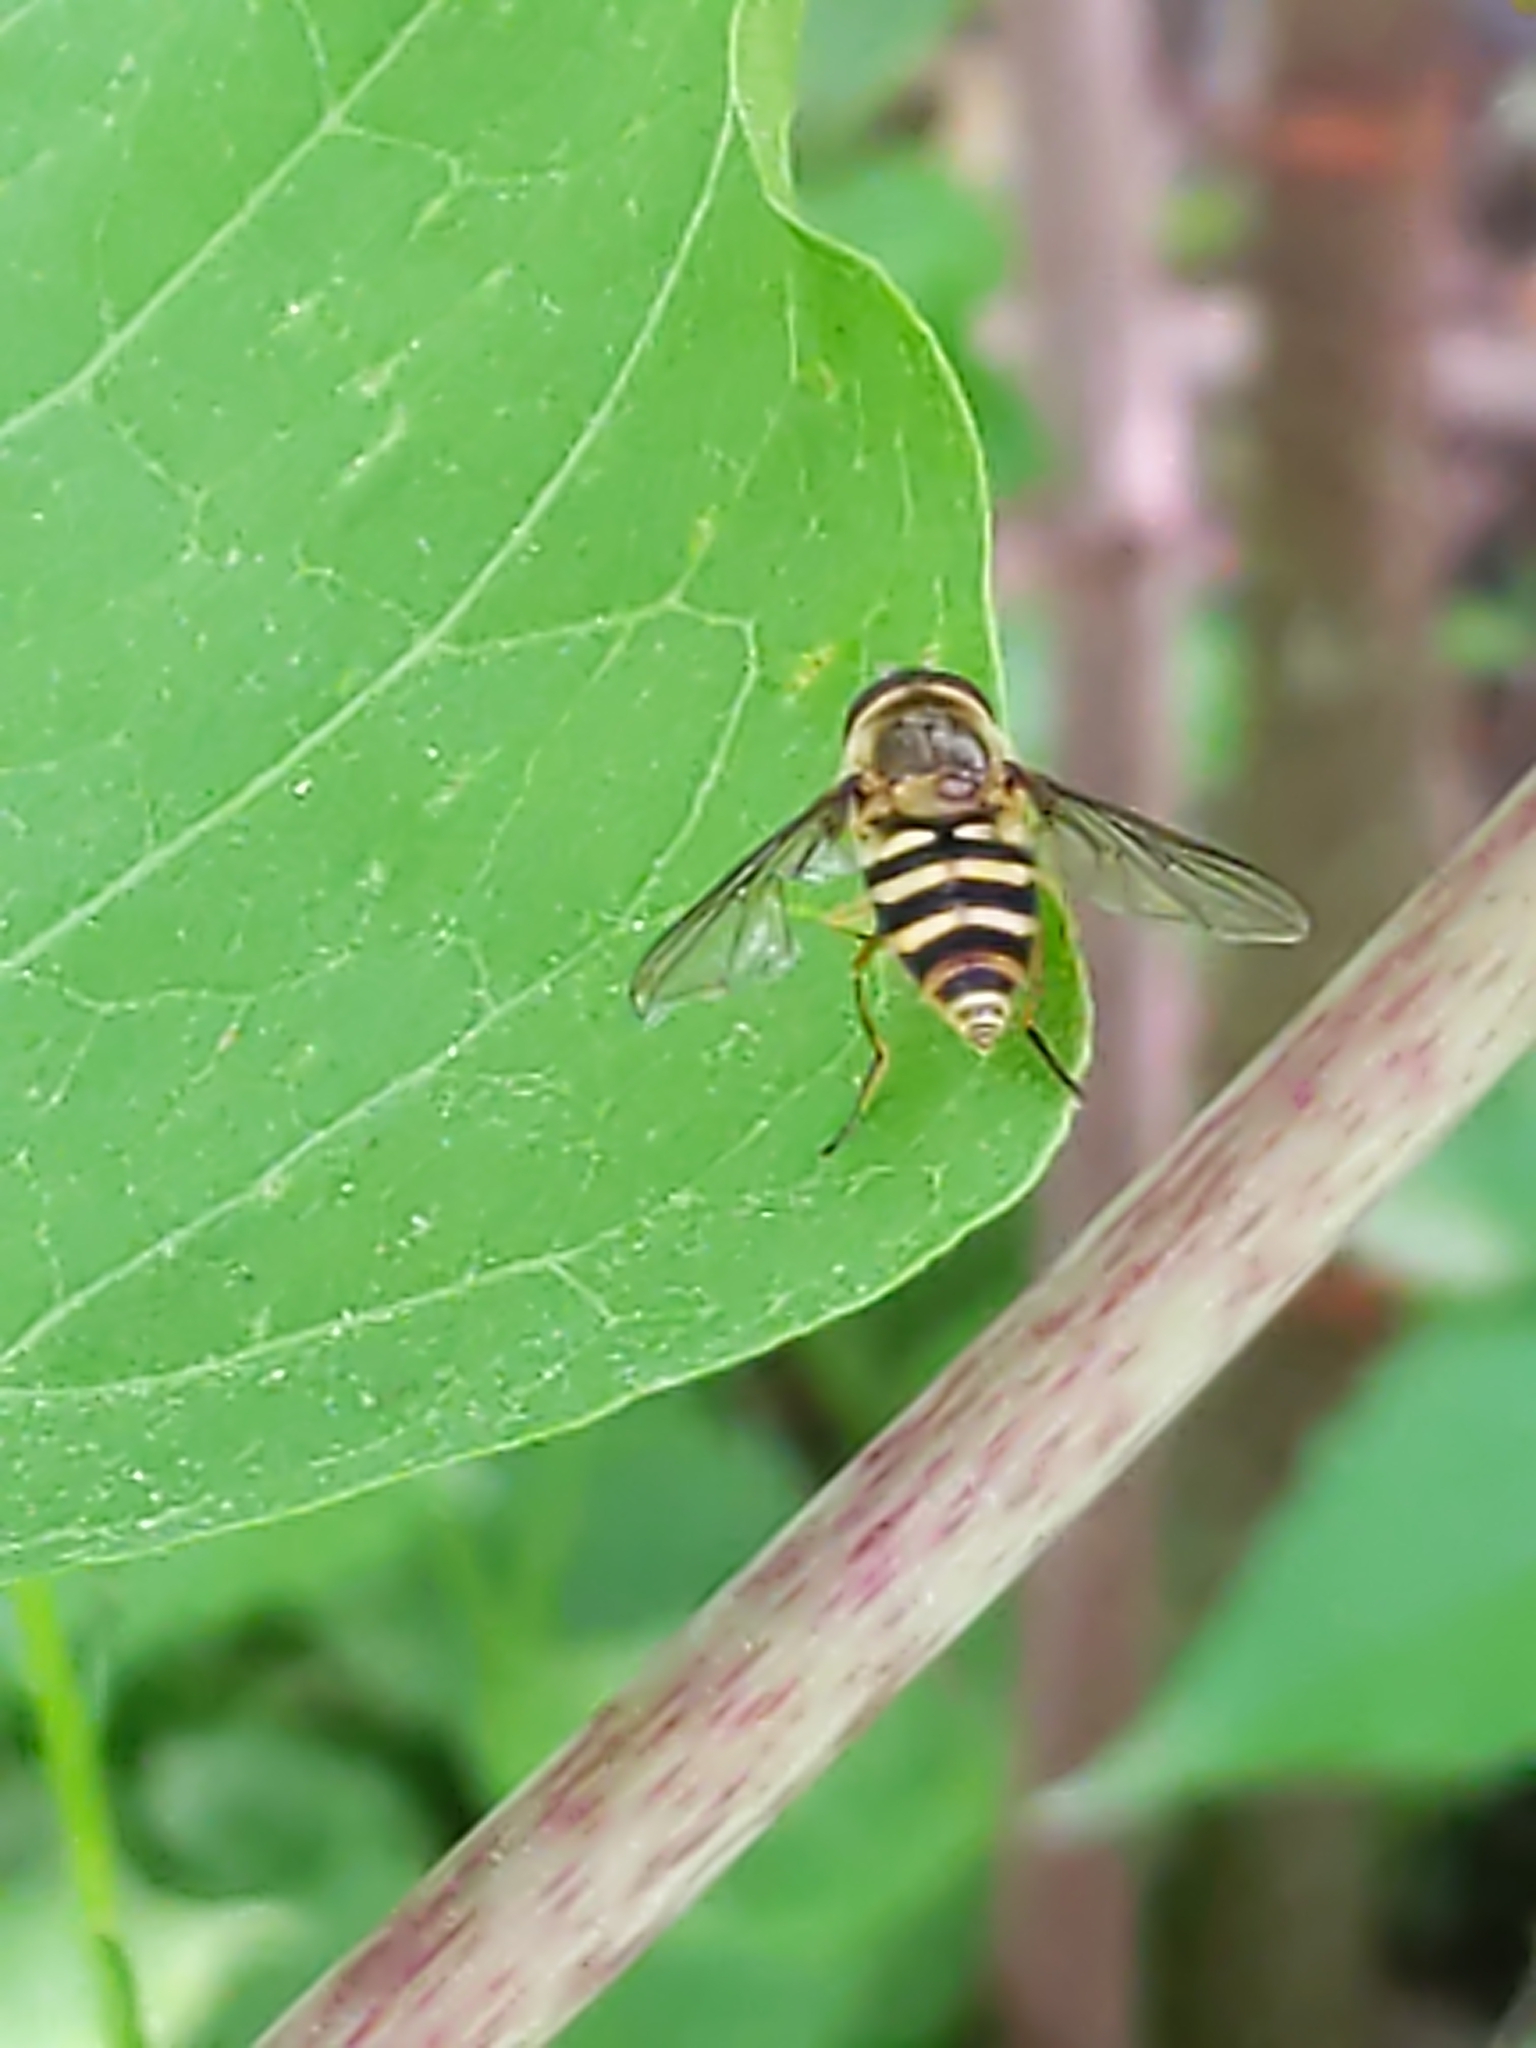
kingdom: Animalia
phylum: Arthropoda
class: Insecta
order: Diptera
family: Syrphidae
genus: Syrphus
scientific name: Syrphus rectus
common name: Yellow-legged flower fly
